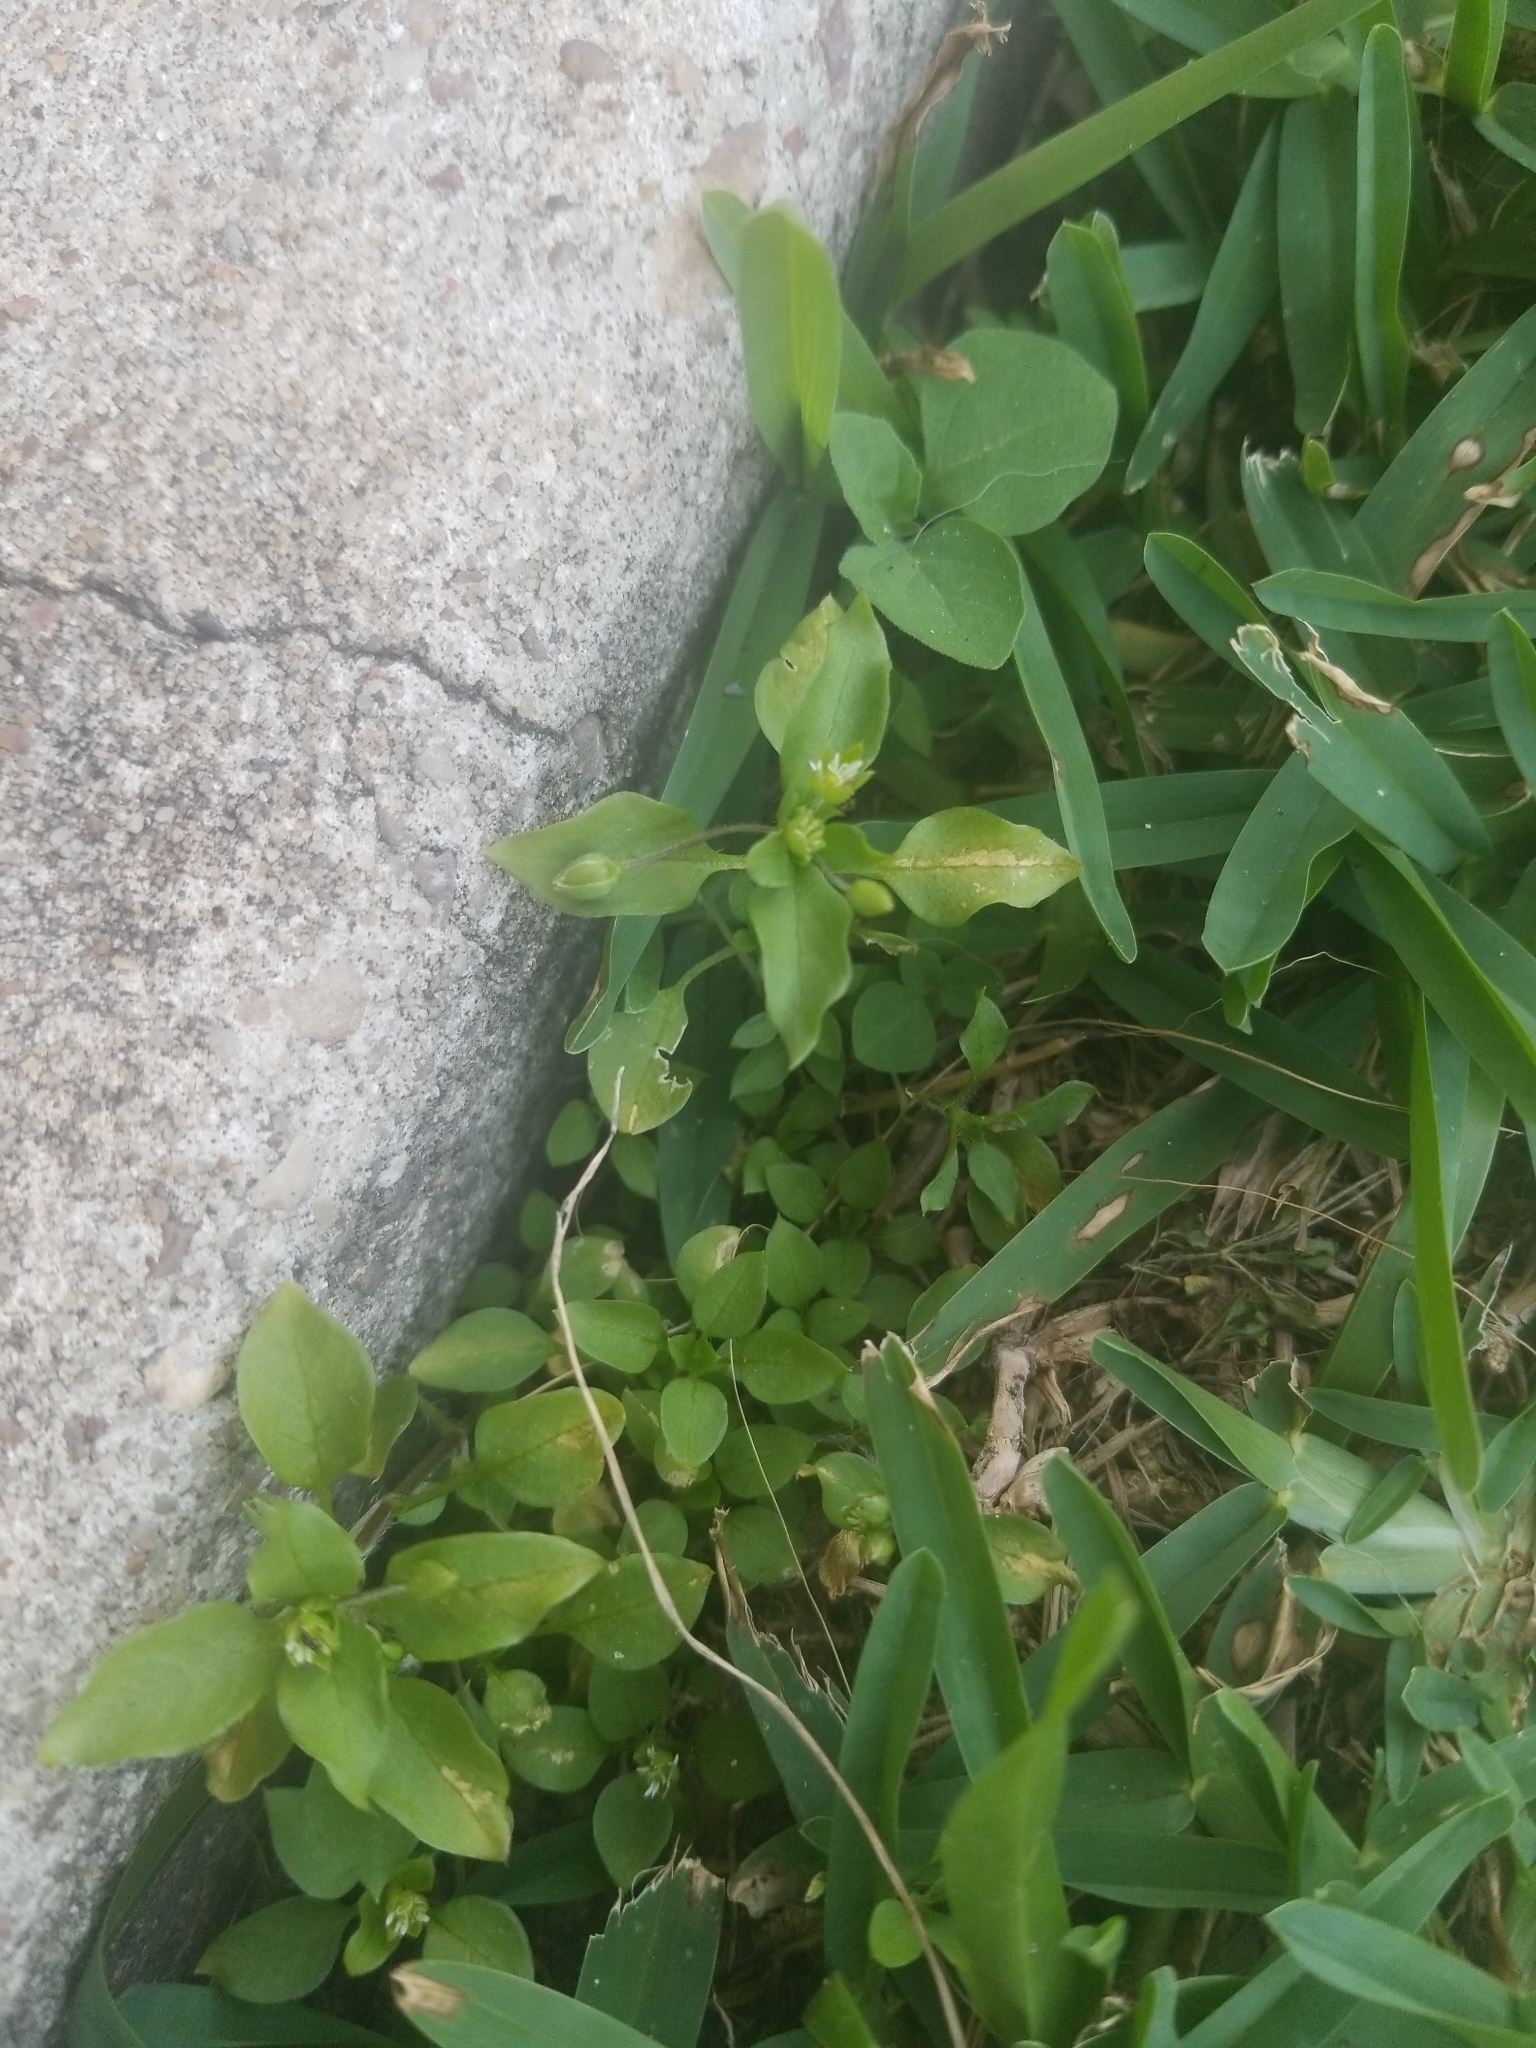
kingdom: Plantae
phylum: Tracheophyta
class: Magnoliopsida
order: Caryophyllales
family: Caryophyllaceae
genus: Stellaria
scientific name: Stellaria media
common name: Common chickweed
